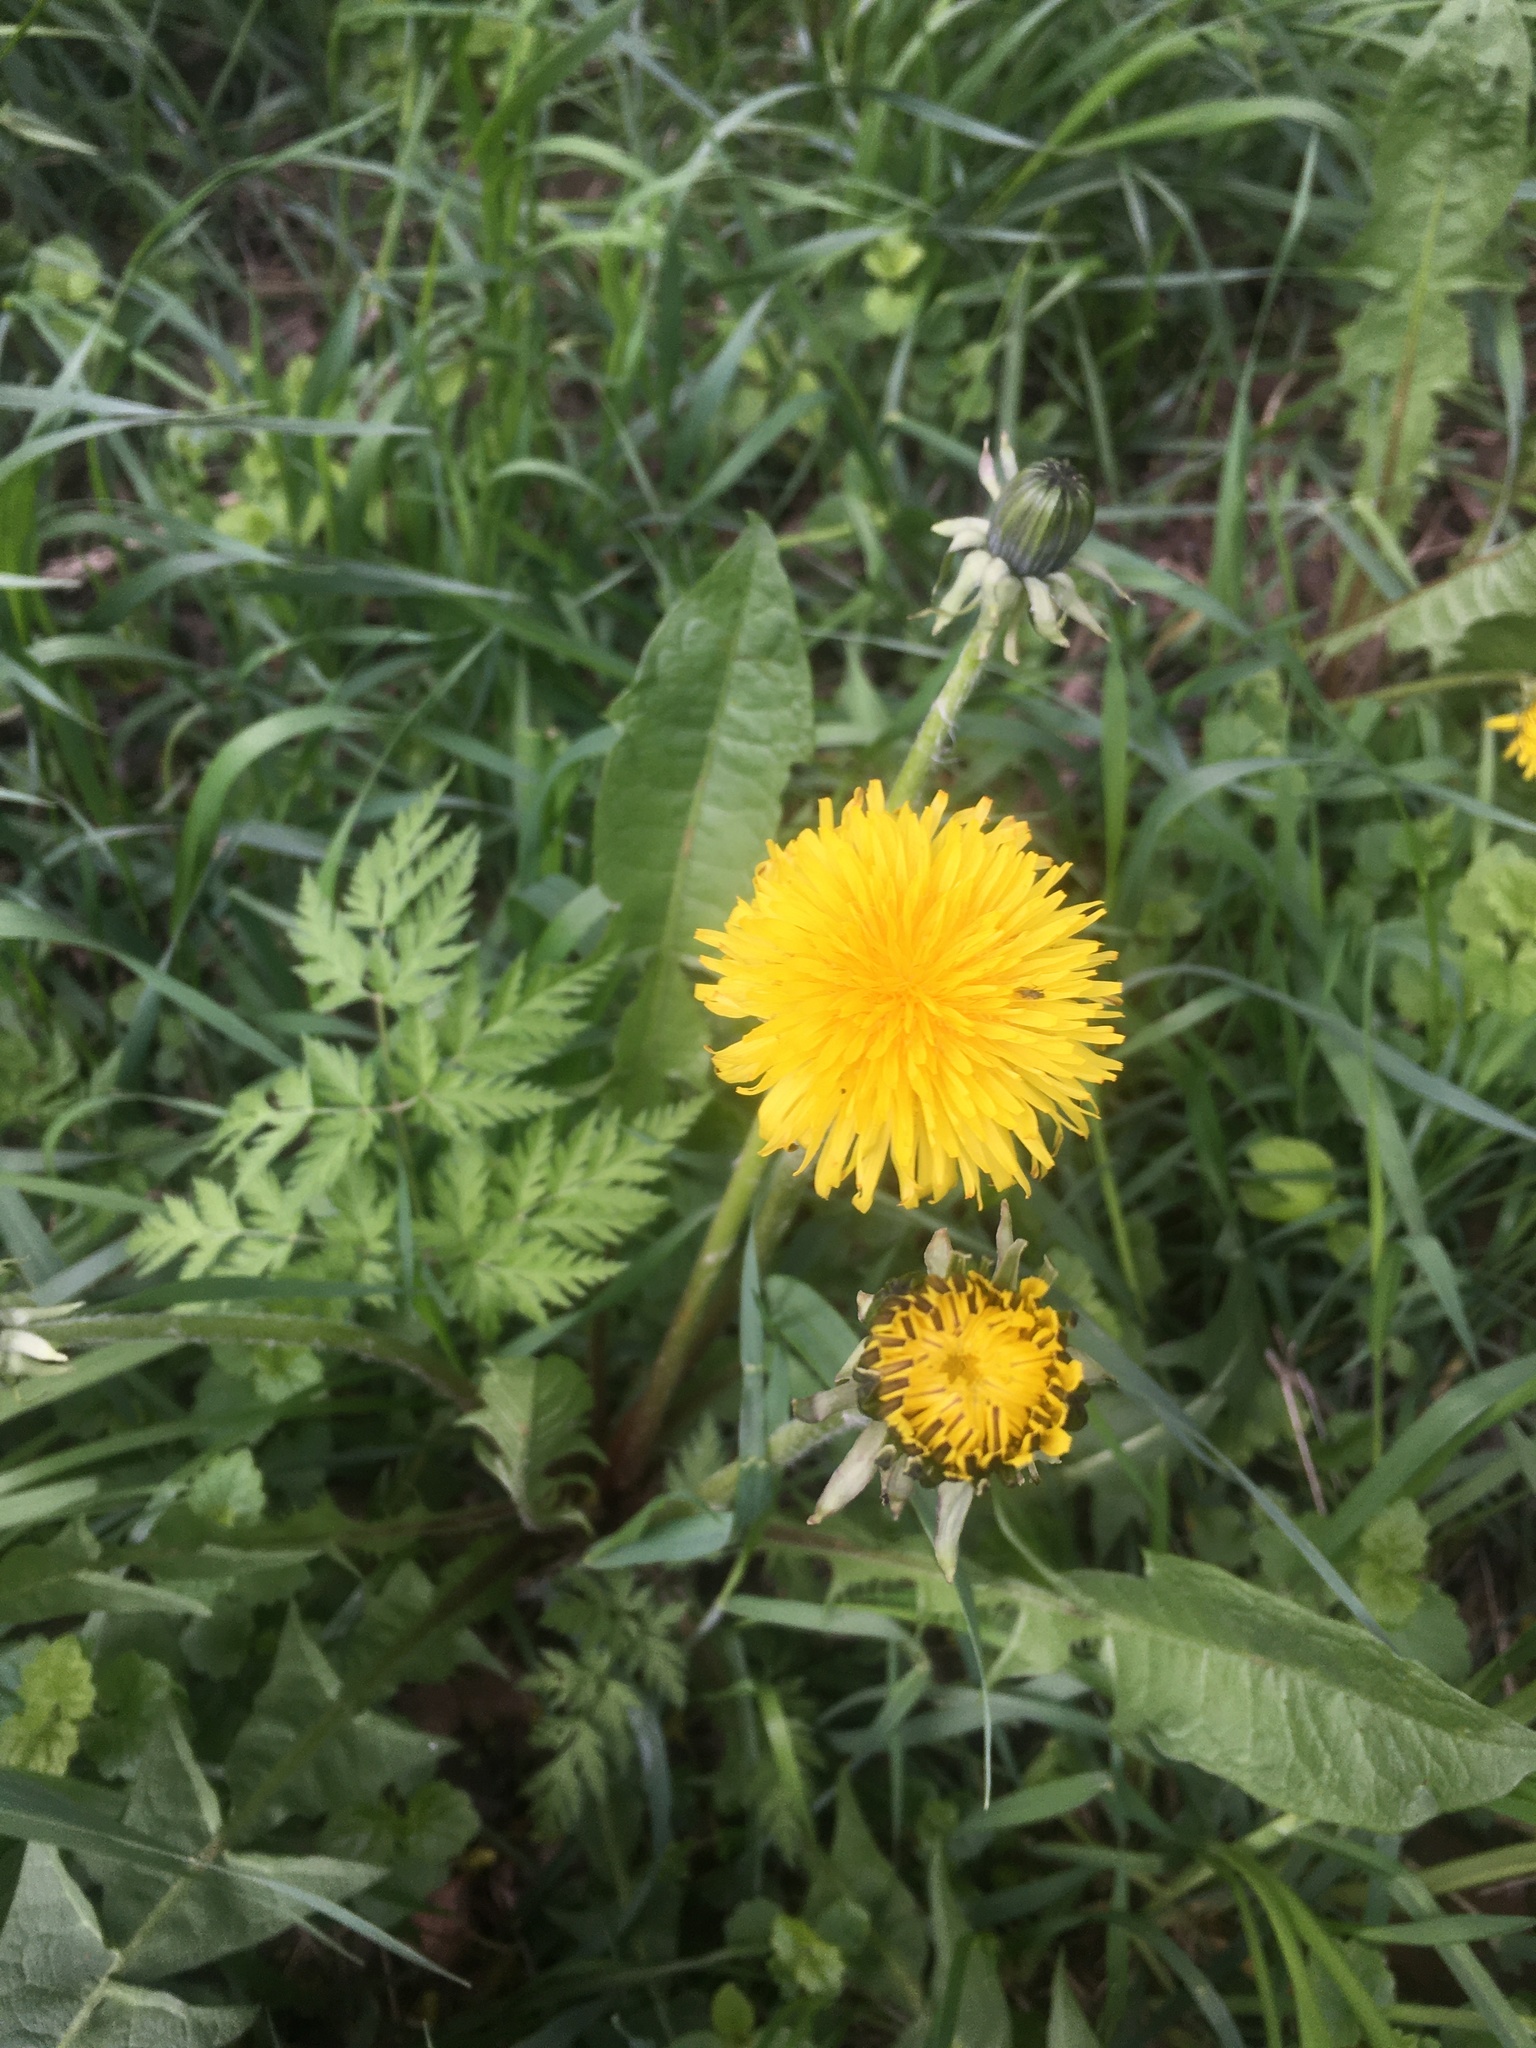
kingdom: Plantae
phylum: Tracheophyta
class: Magnoliopsida
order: Asterales
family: Asteraceae
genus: Taraxacum
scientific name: Taraxacum officinale
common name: Common dandelion
